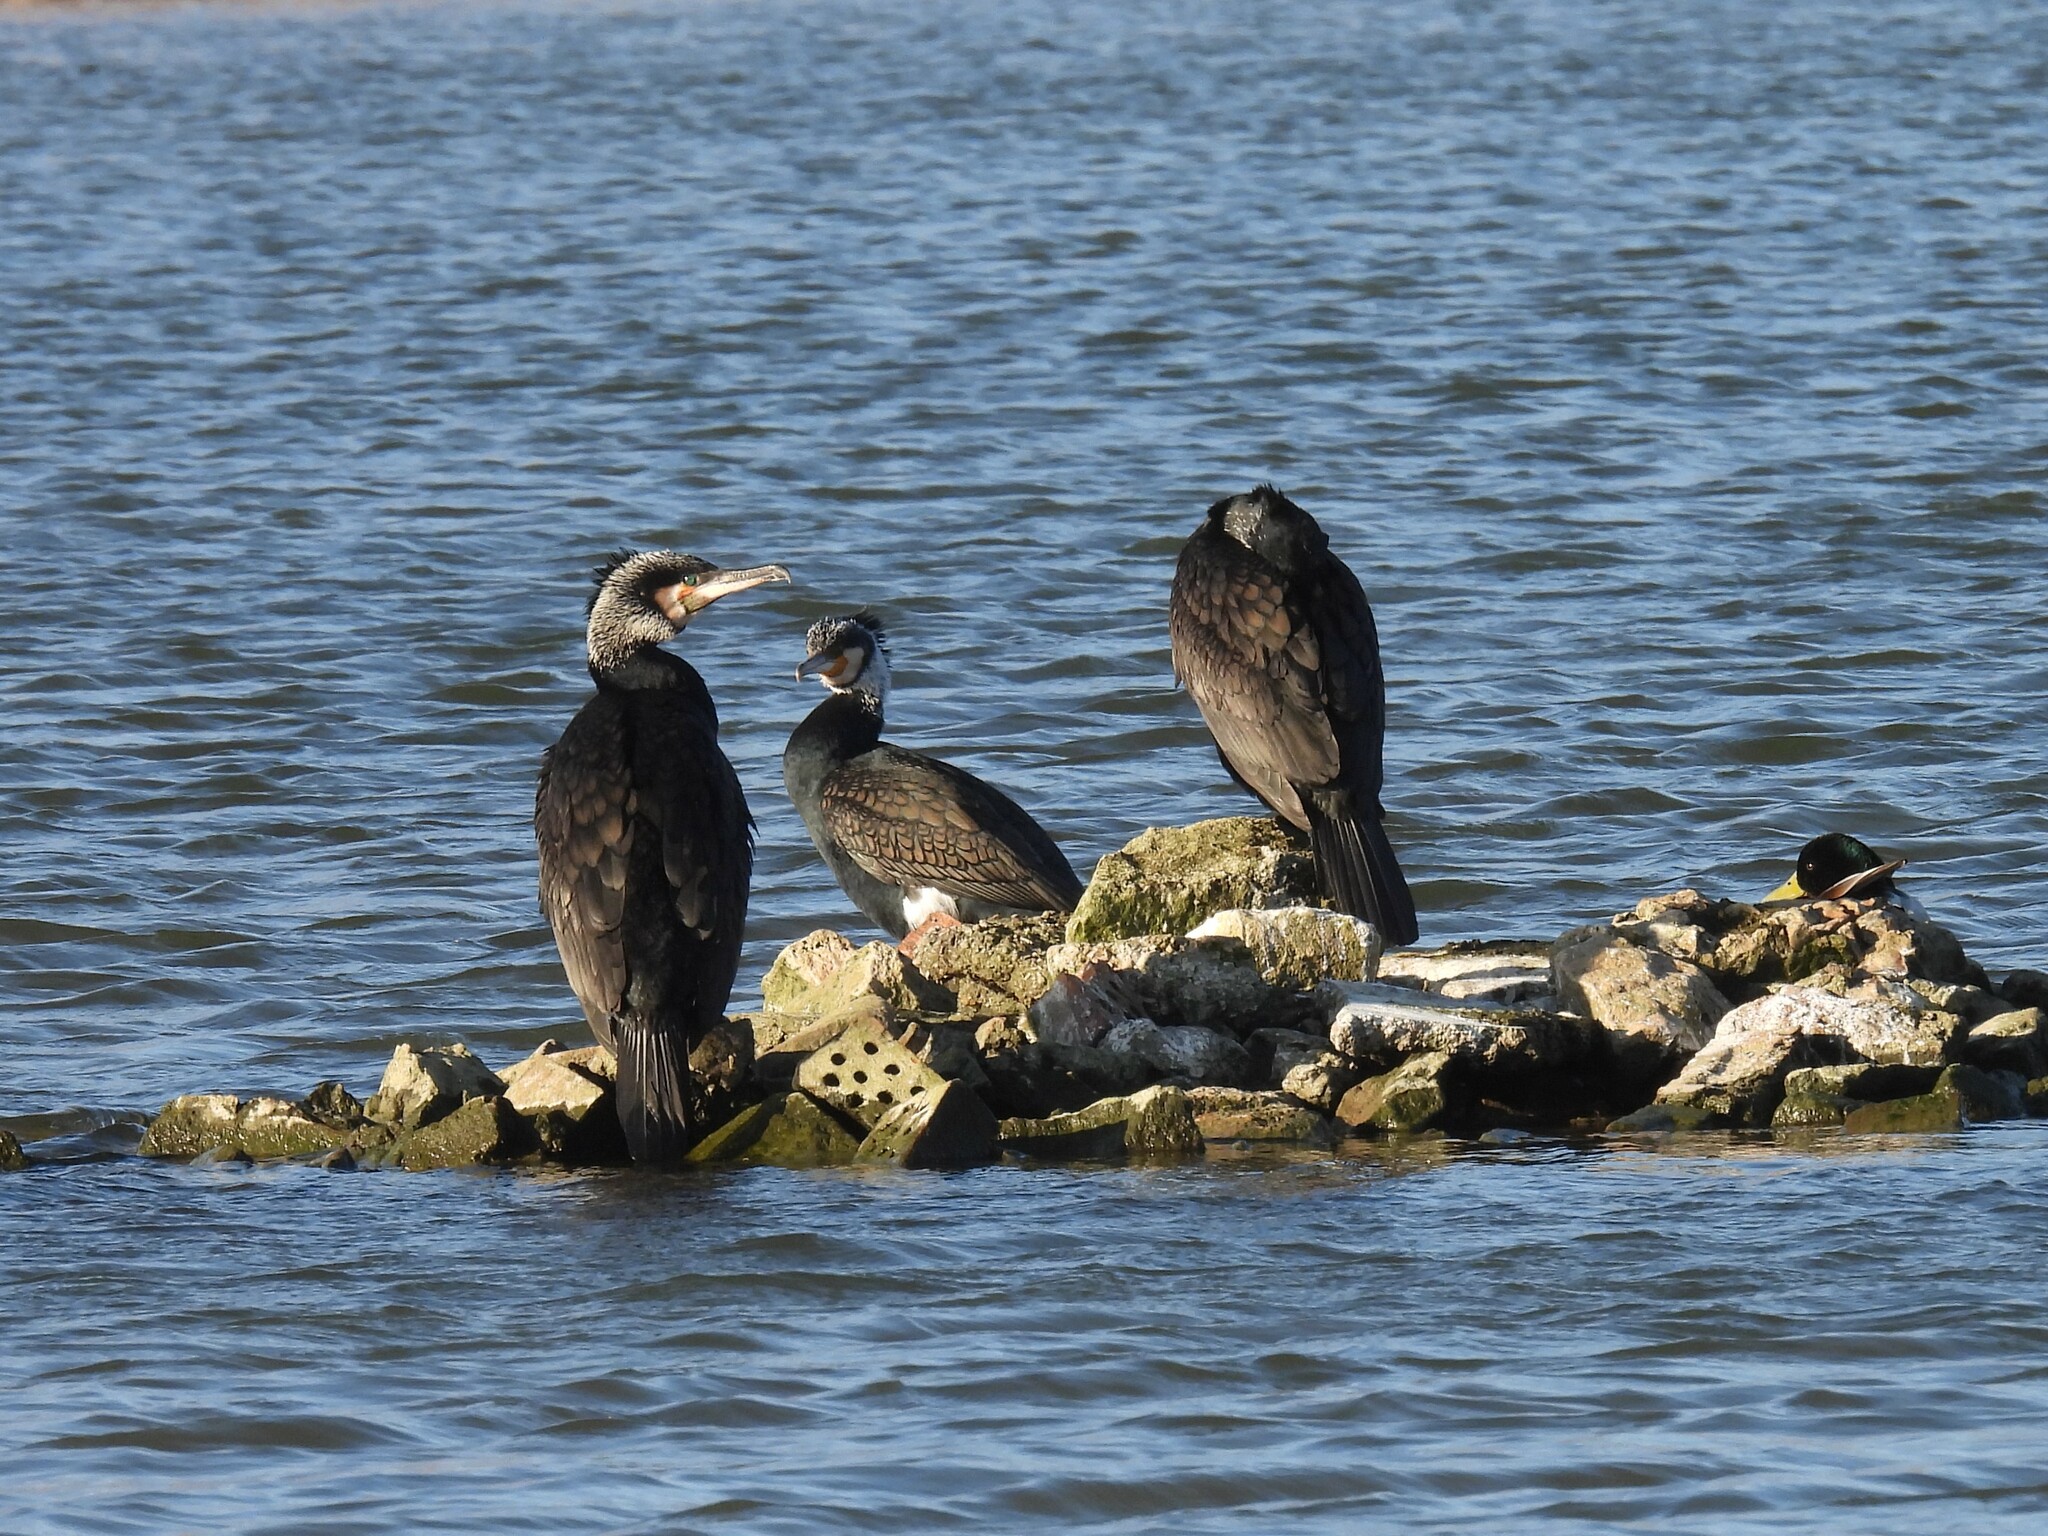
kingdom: Animalia
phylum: Chordata
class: Aves
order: Suliformes
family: Phalacrocoracidae
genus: Phalacrocorax
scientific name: Phalacrocorax carbo
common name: Great cormorant
